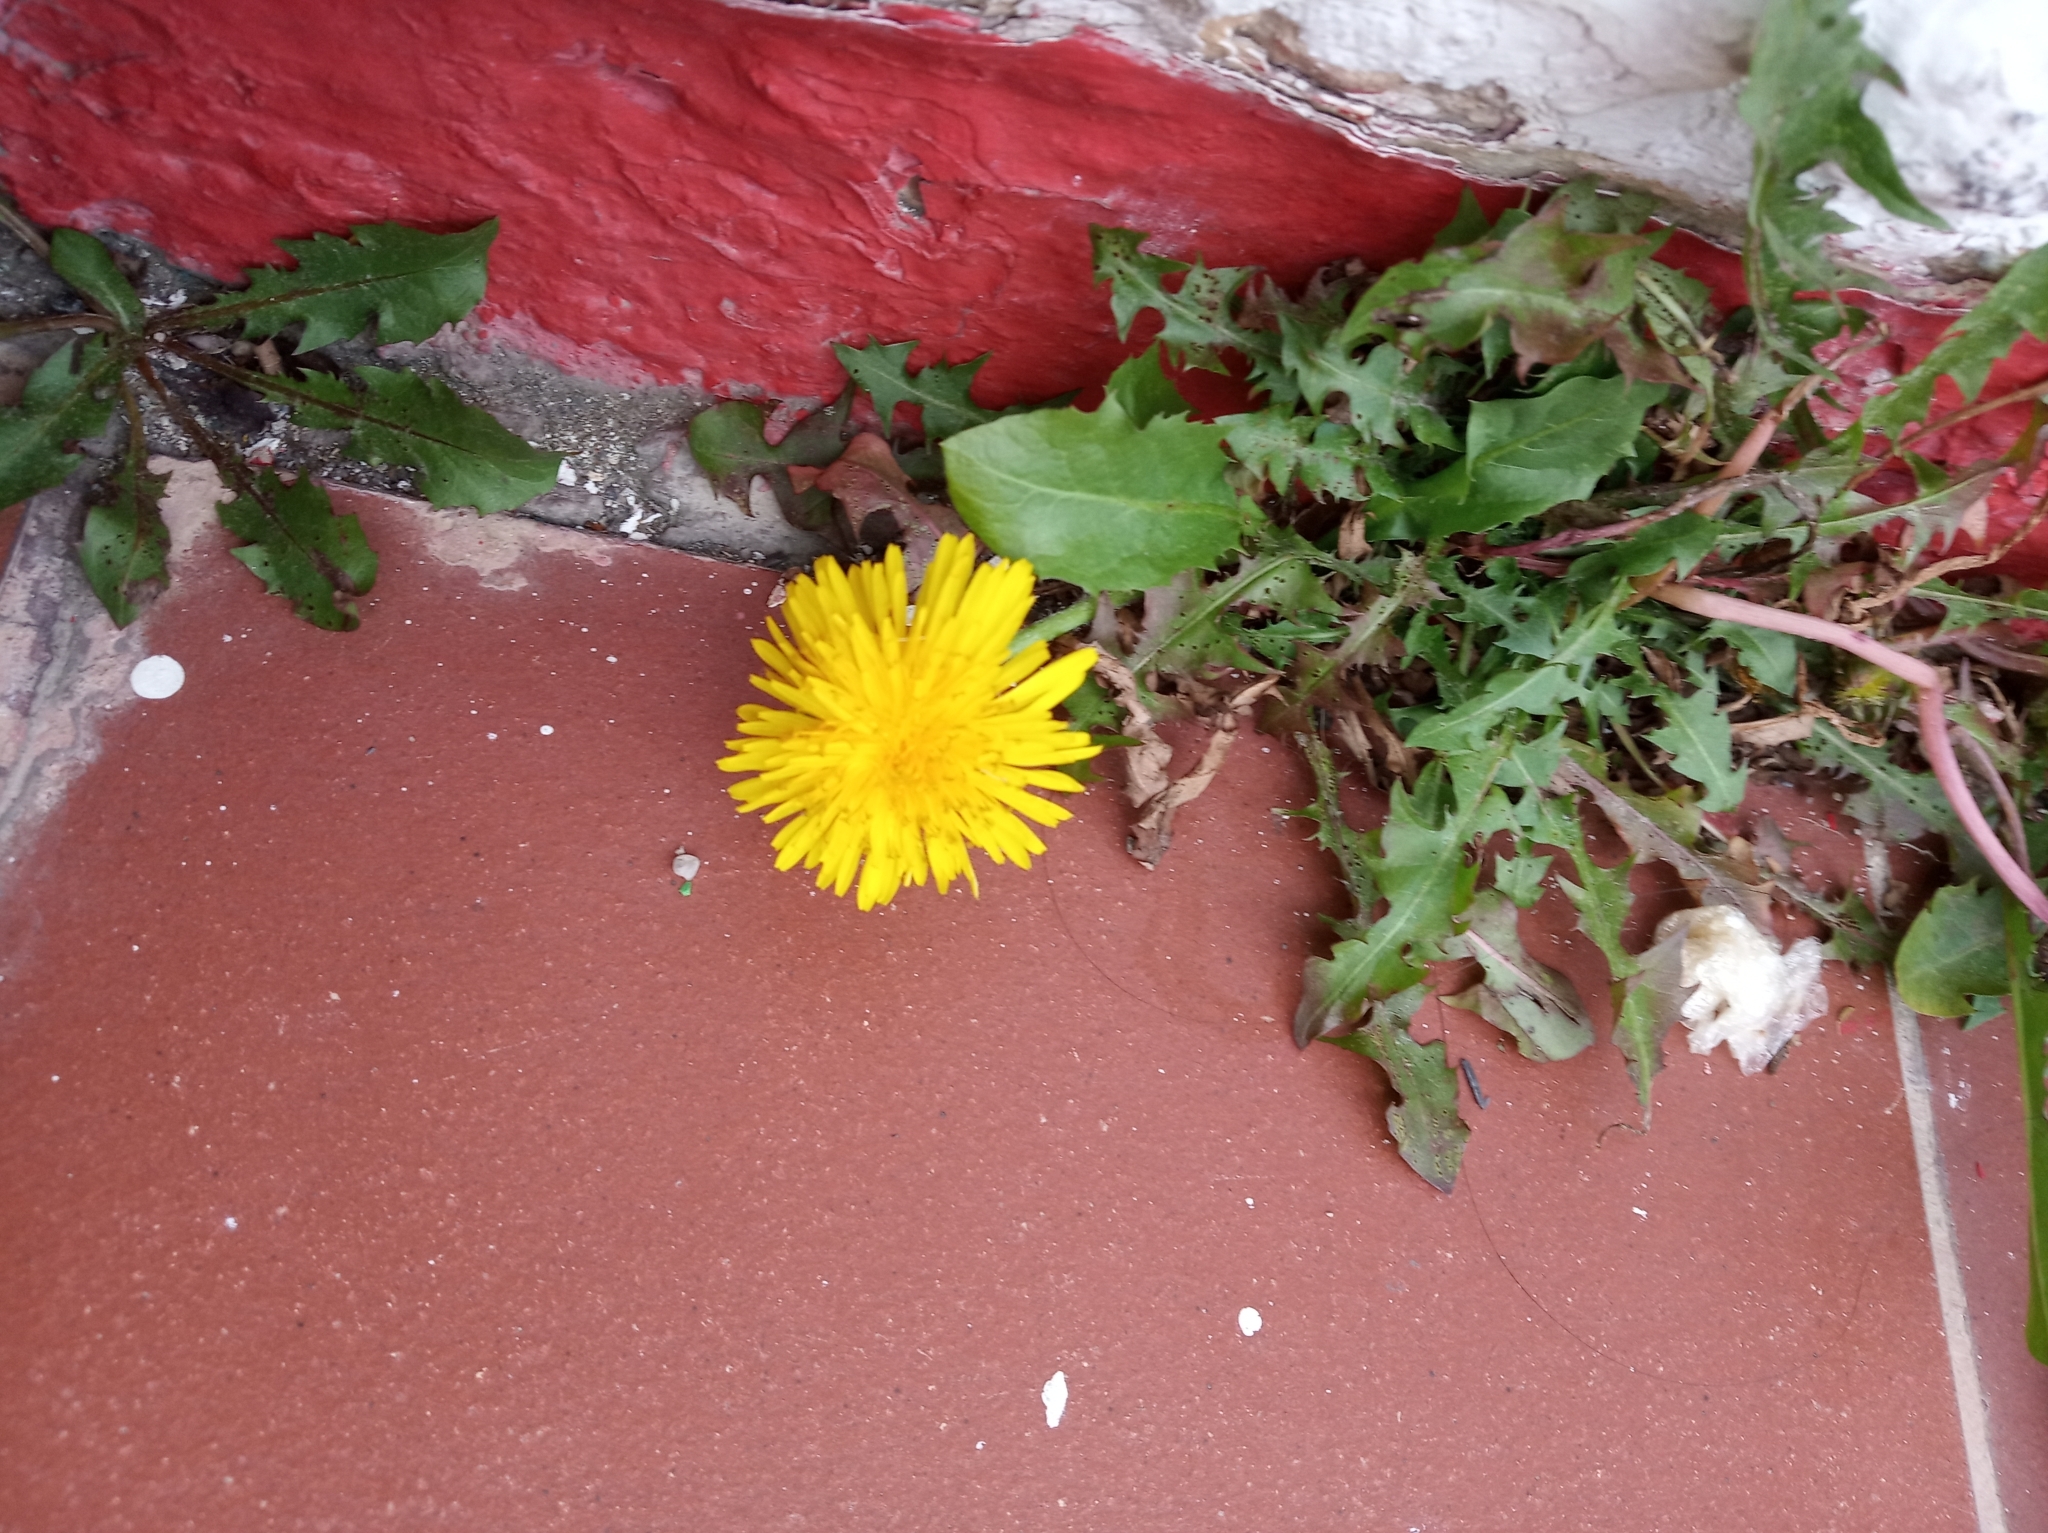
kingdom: Plantae
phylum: Tracheophyta
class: Magnoliopsida
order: Asterales
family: Asteraceae
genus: Taraxacum
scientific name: Taraxacum officinale
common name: Common dandelion
